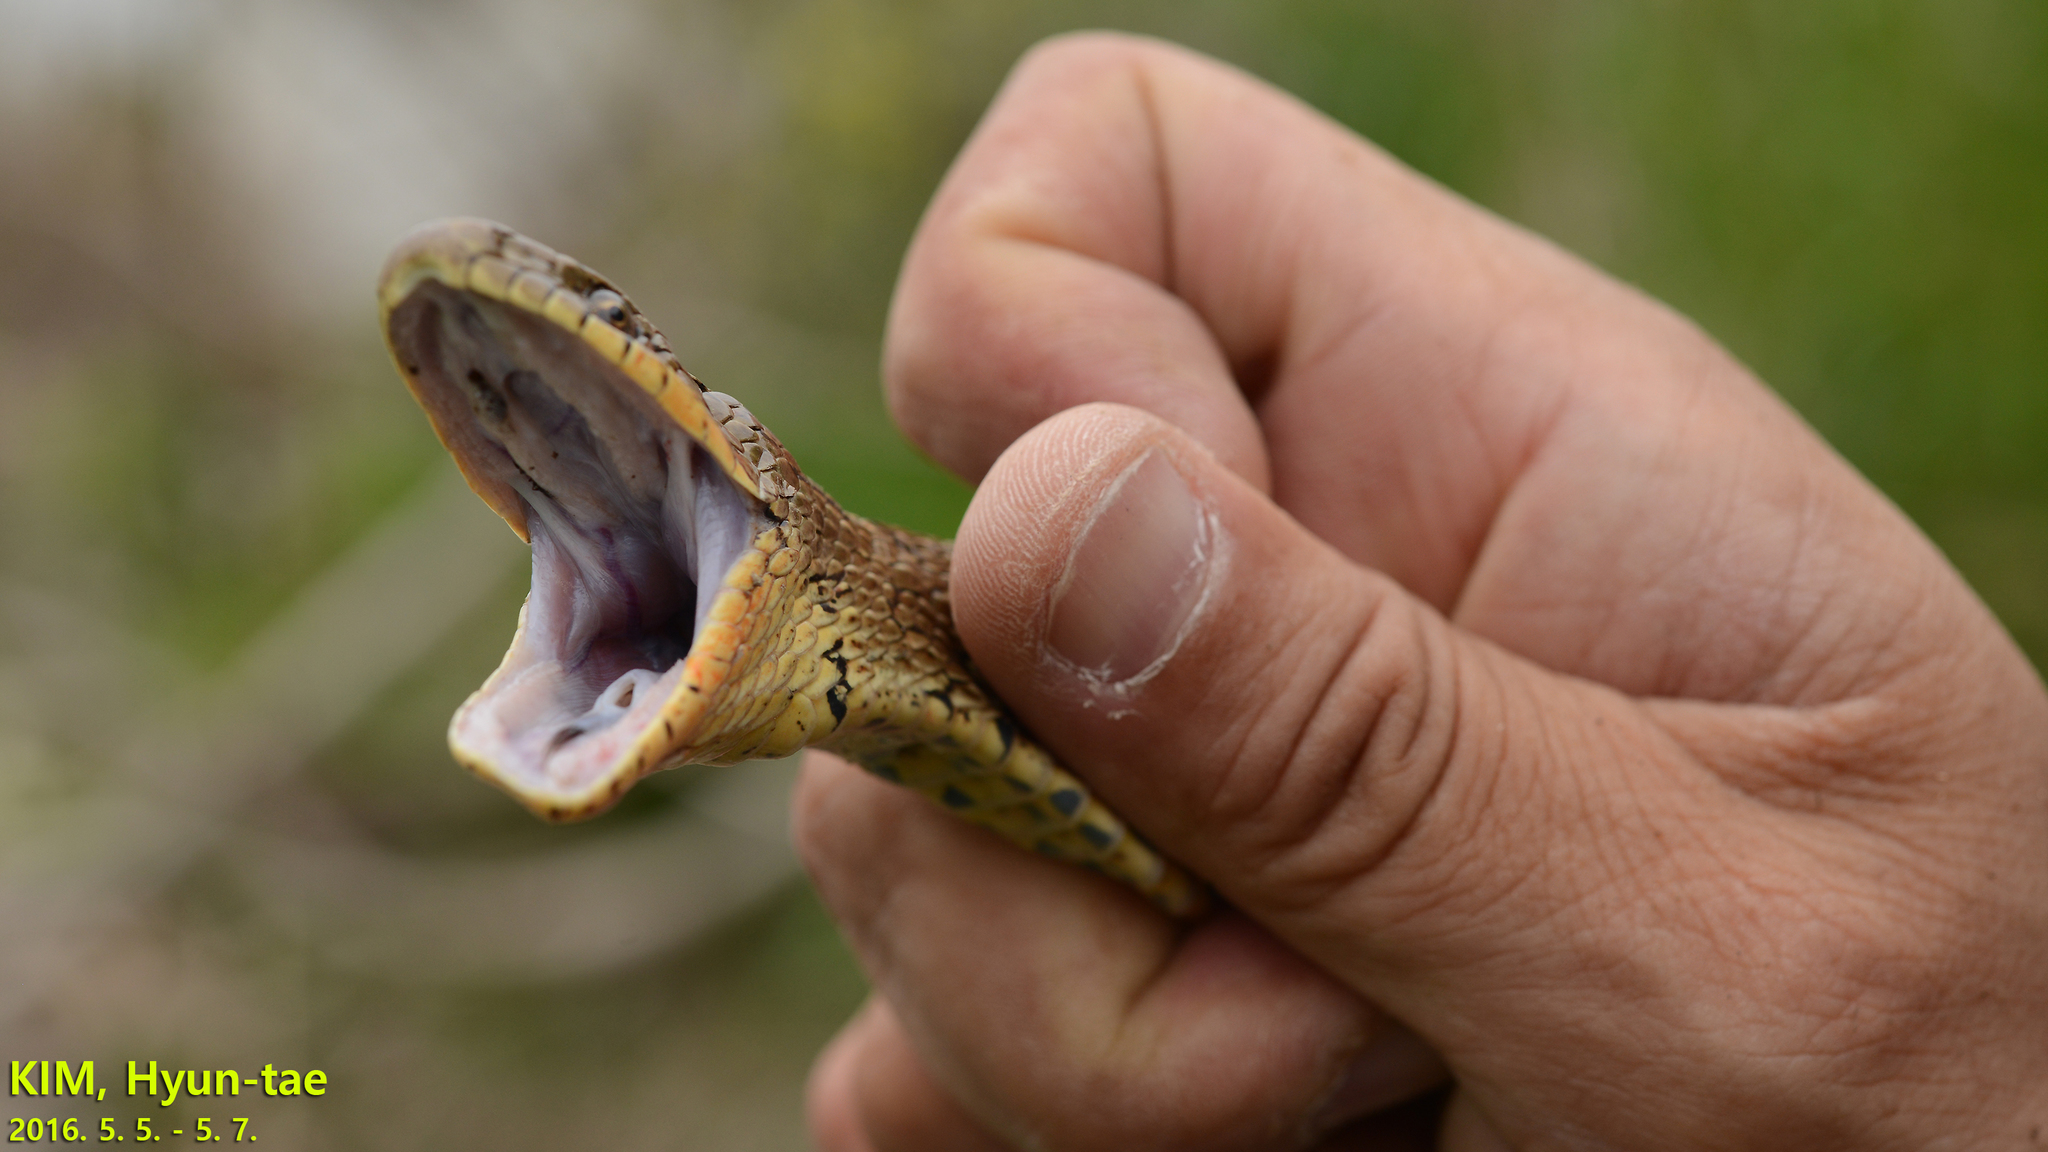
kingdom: Animalia
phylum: Chordata
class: Squamata
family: Colubridae
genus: Elaphe
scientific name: Elaphe dione
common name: Dione ratsnake
